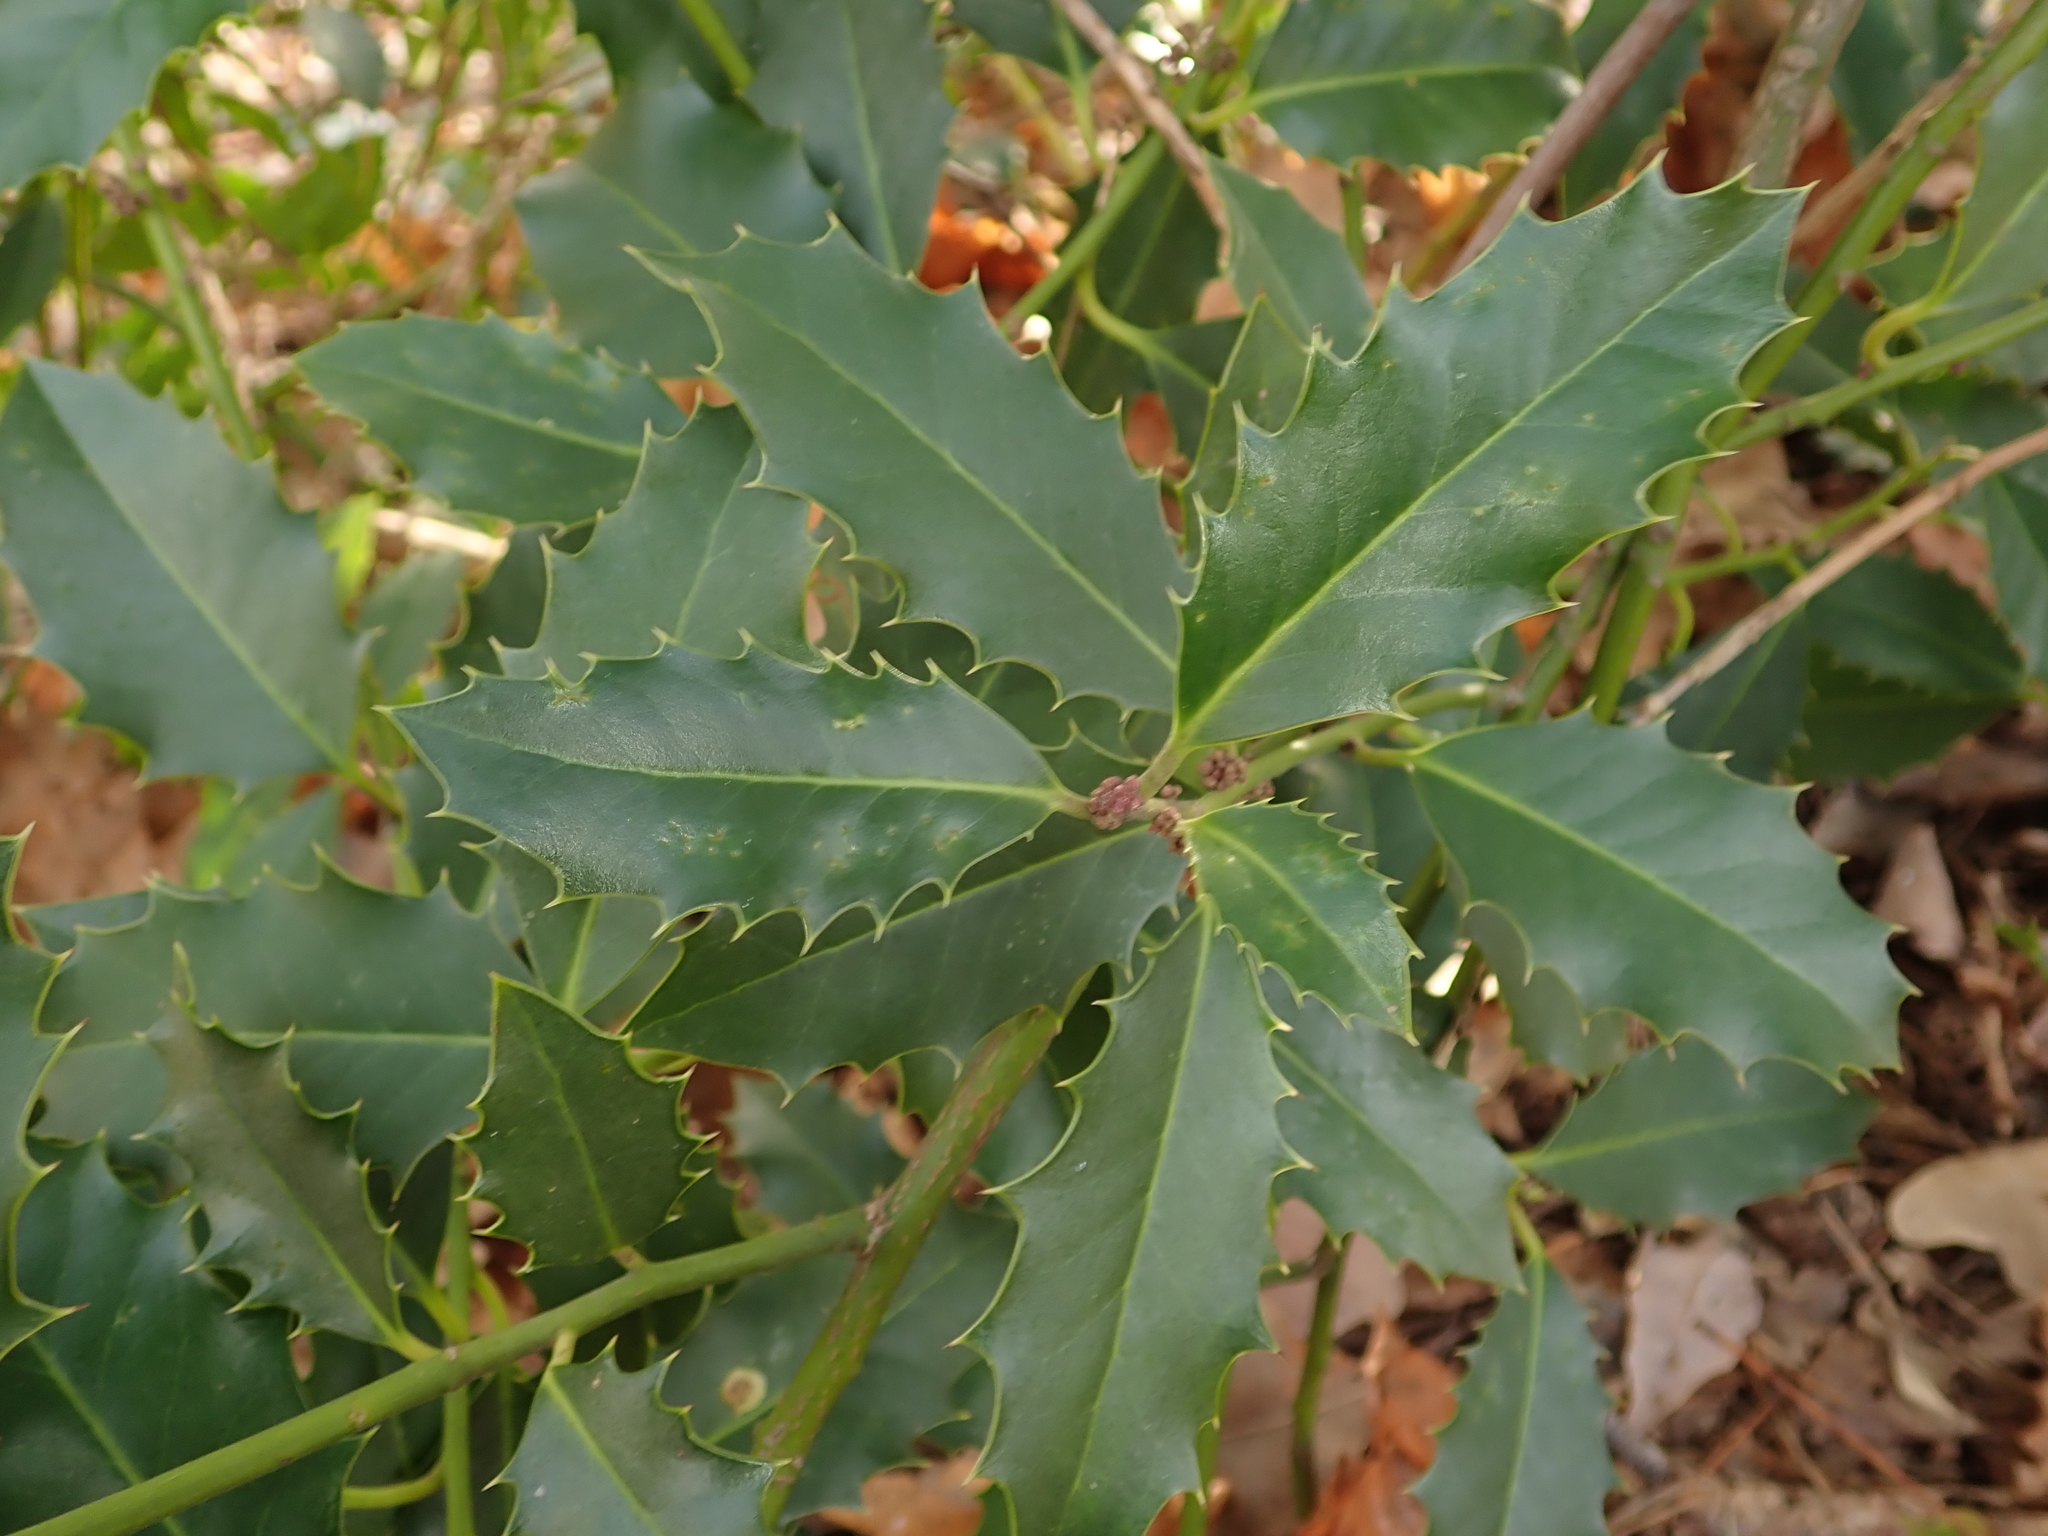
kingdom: Plantae
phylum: Tracheophyta
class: Magnoliopsida
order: Aquifoliales
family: Aquifoliaceae
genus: Ilex
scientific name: Ilex aquifolium
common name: English holly
